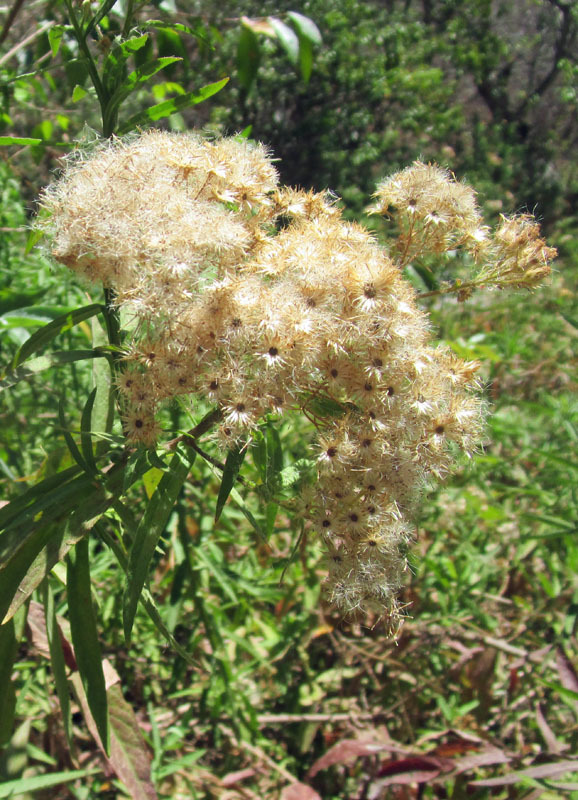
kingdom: Plantae
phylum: Tracheophyta
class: Magnoliopsida
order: Asterales
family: Asteraceae
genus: Pluchea
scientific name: Pluchea salicifolia
